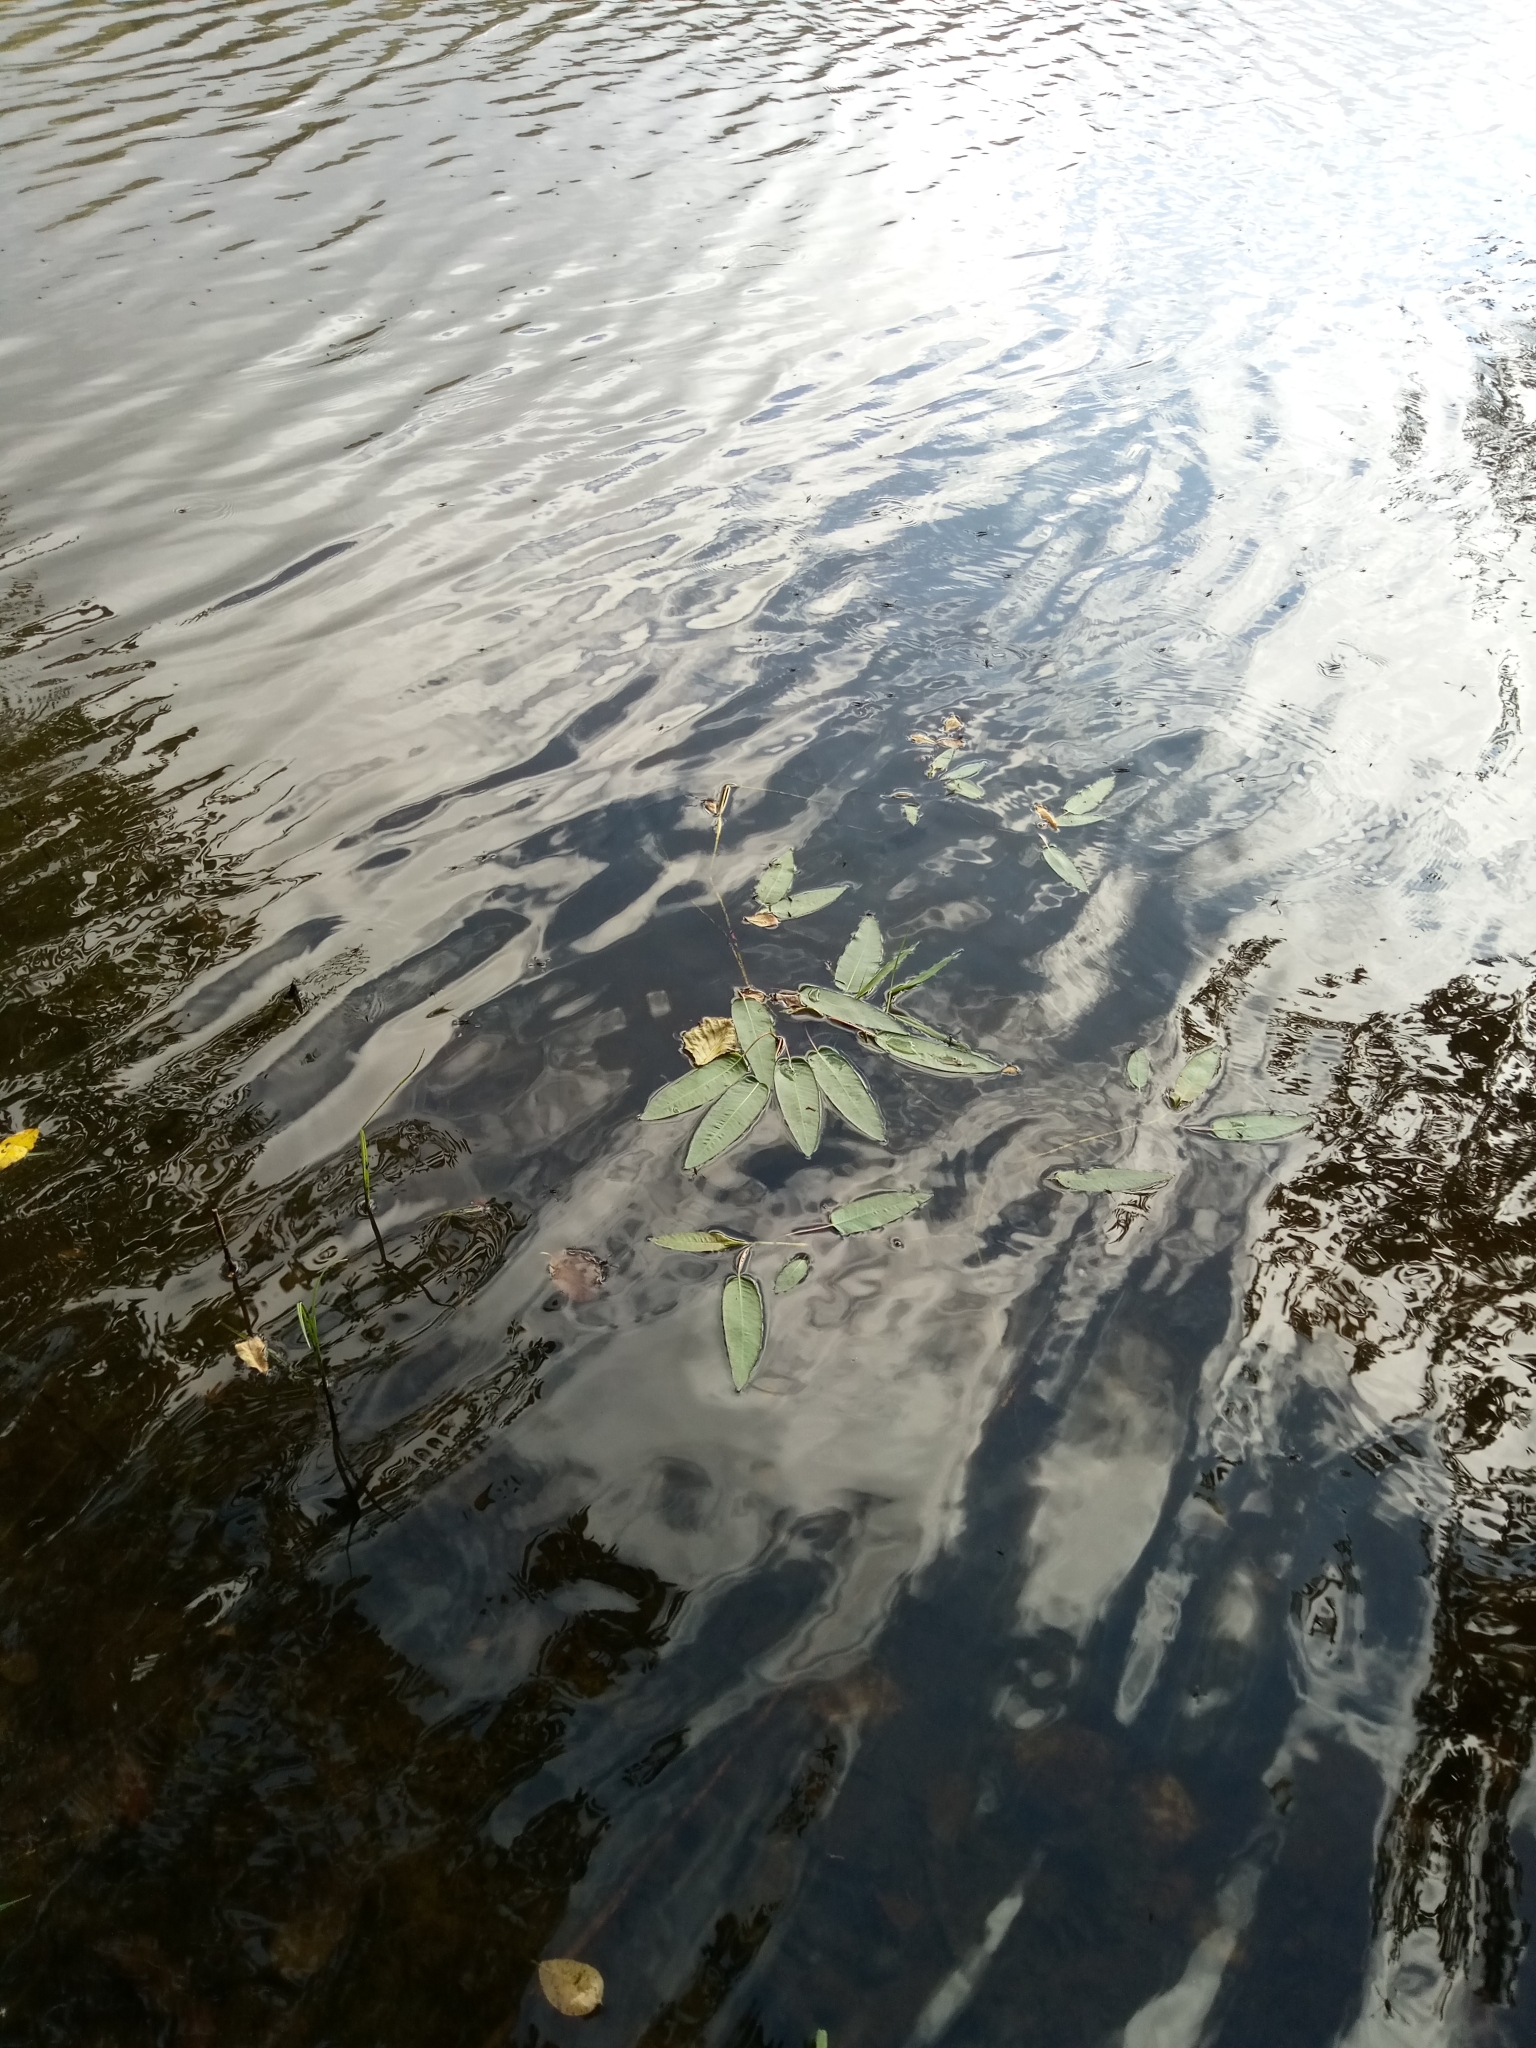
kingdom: Plantae
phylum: Tracheophyta
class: Magnoliopsida
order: Caryophyllales
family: Polygonaceae
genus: Persicaria
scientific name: Persicaria amphibia
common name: Amphibious bistort
